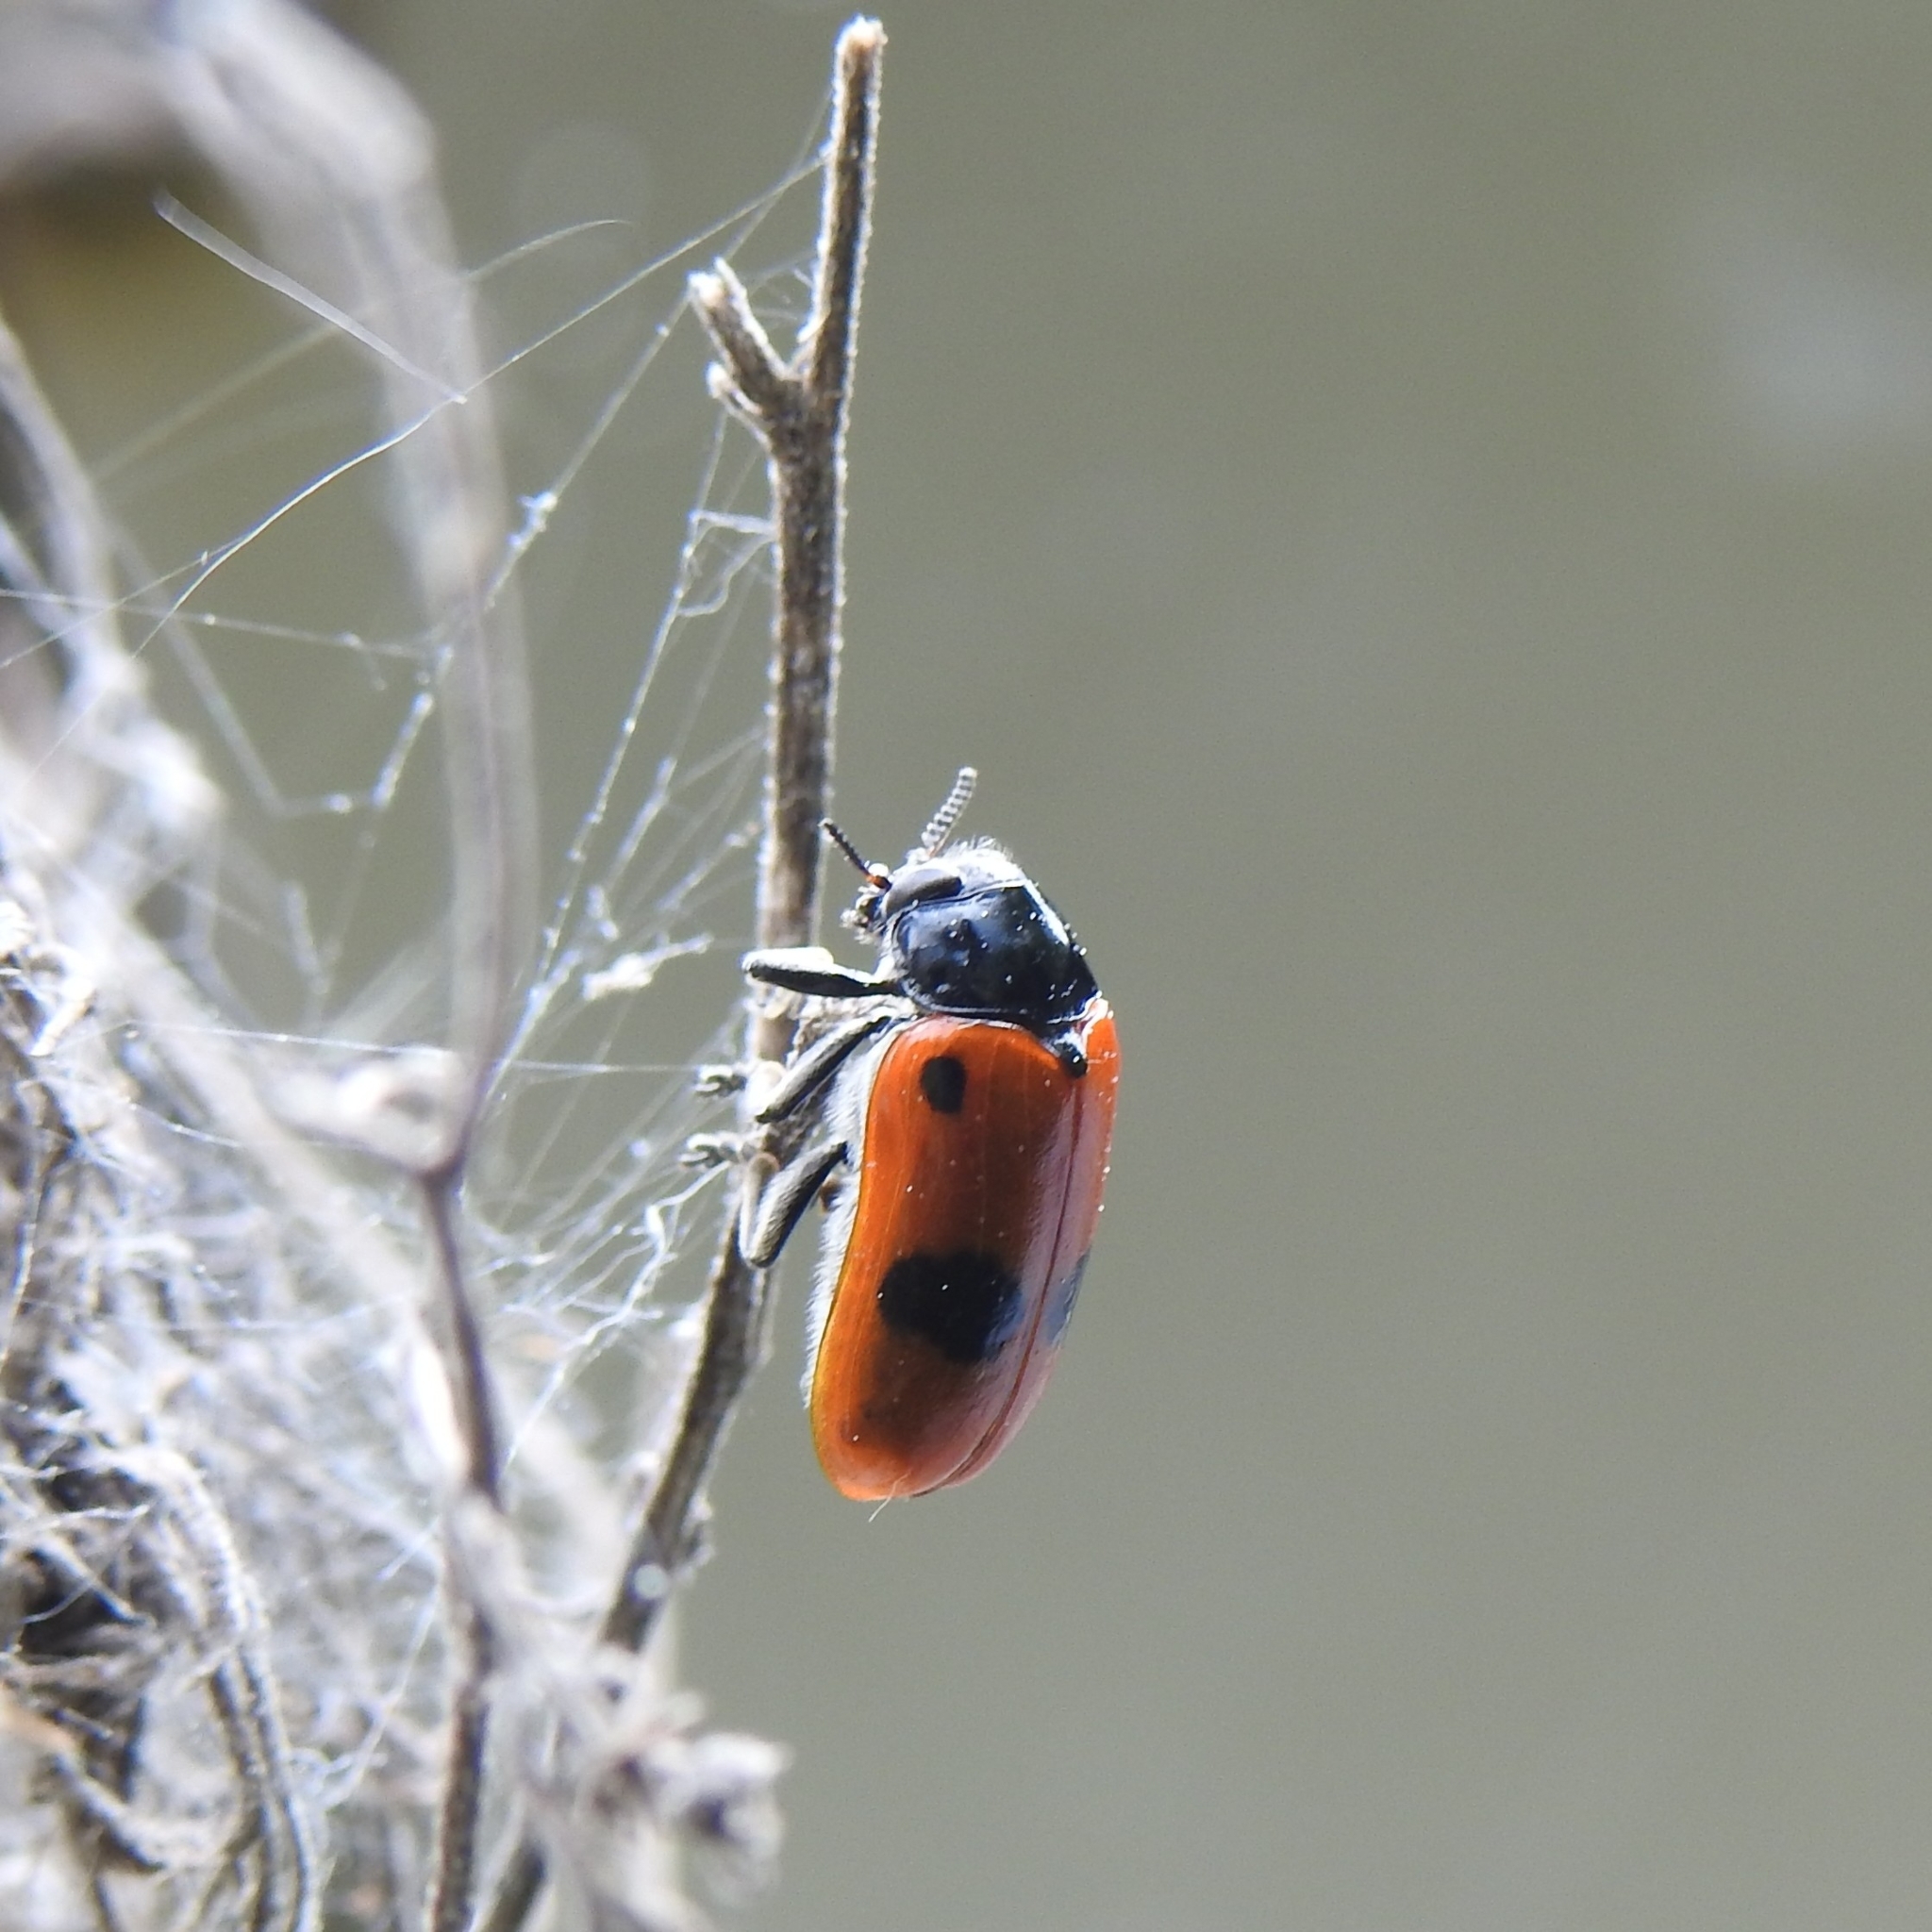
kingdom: Animalia
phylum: Arthropoda
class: Insecta
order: Coleoptera
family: Chrysomelidae
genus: Clytra
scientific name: Clytra laeviuscula
